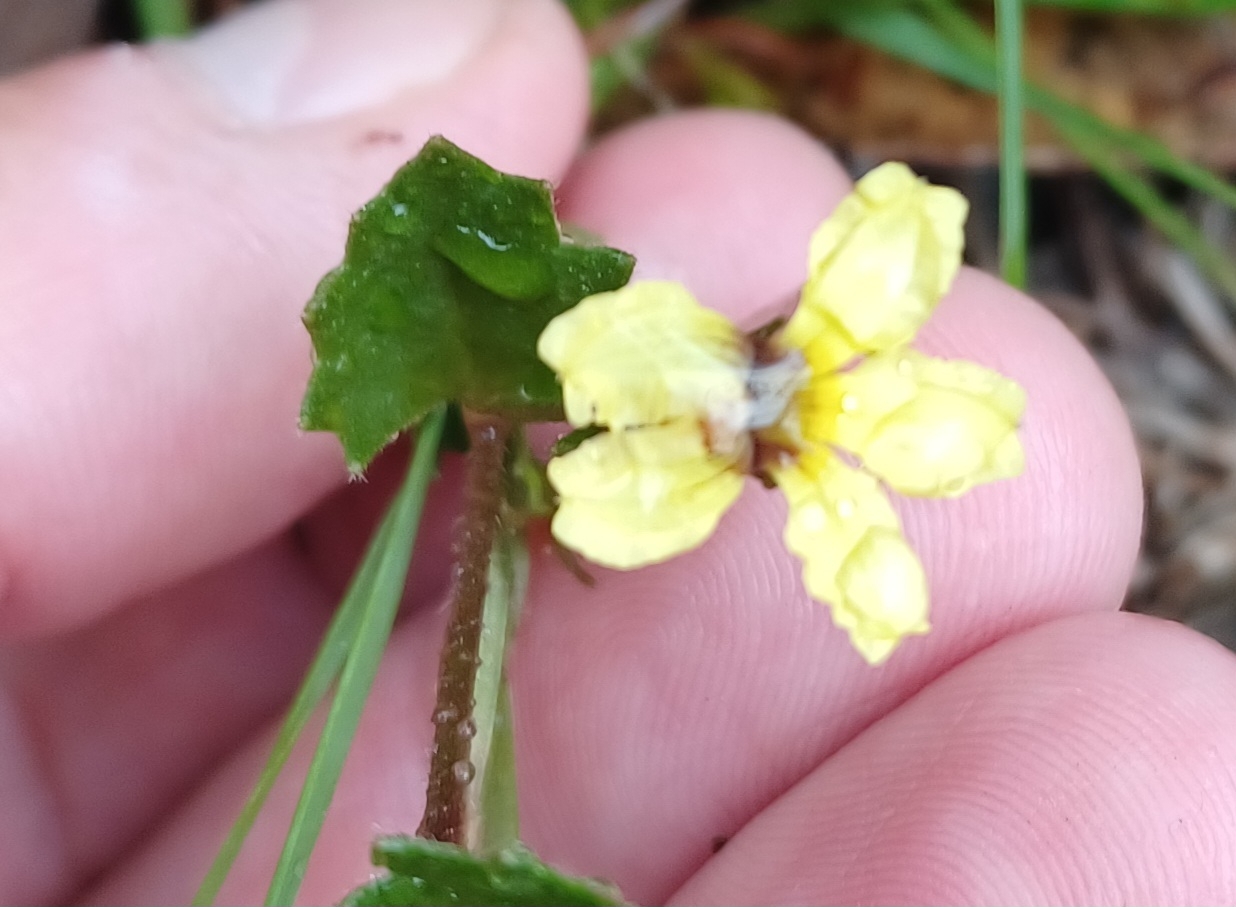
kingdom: Plantae
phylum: Tracheophyta
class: Magnoliopsida
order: Asterales
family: Goodeniaceae
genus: Goodenia
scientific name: Goodenia rotundifolia
